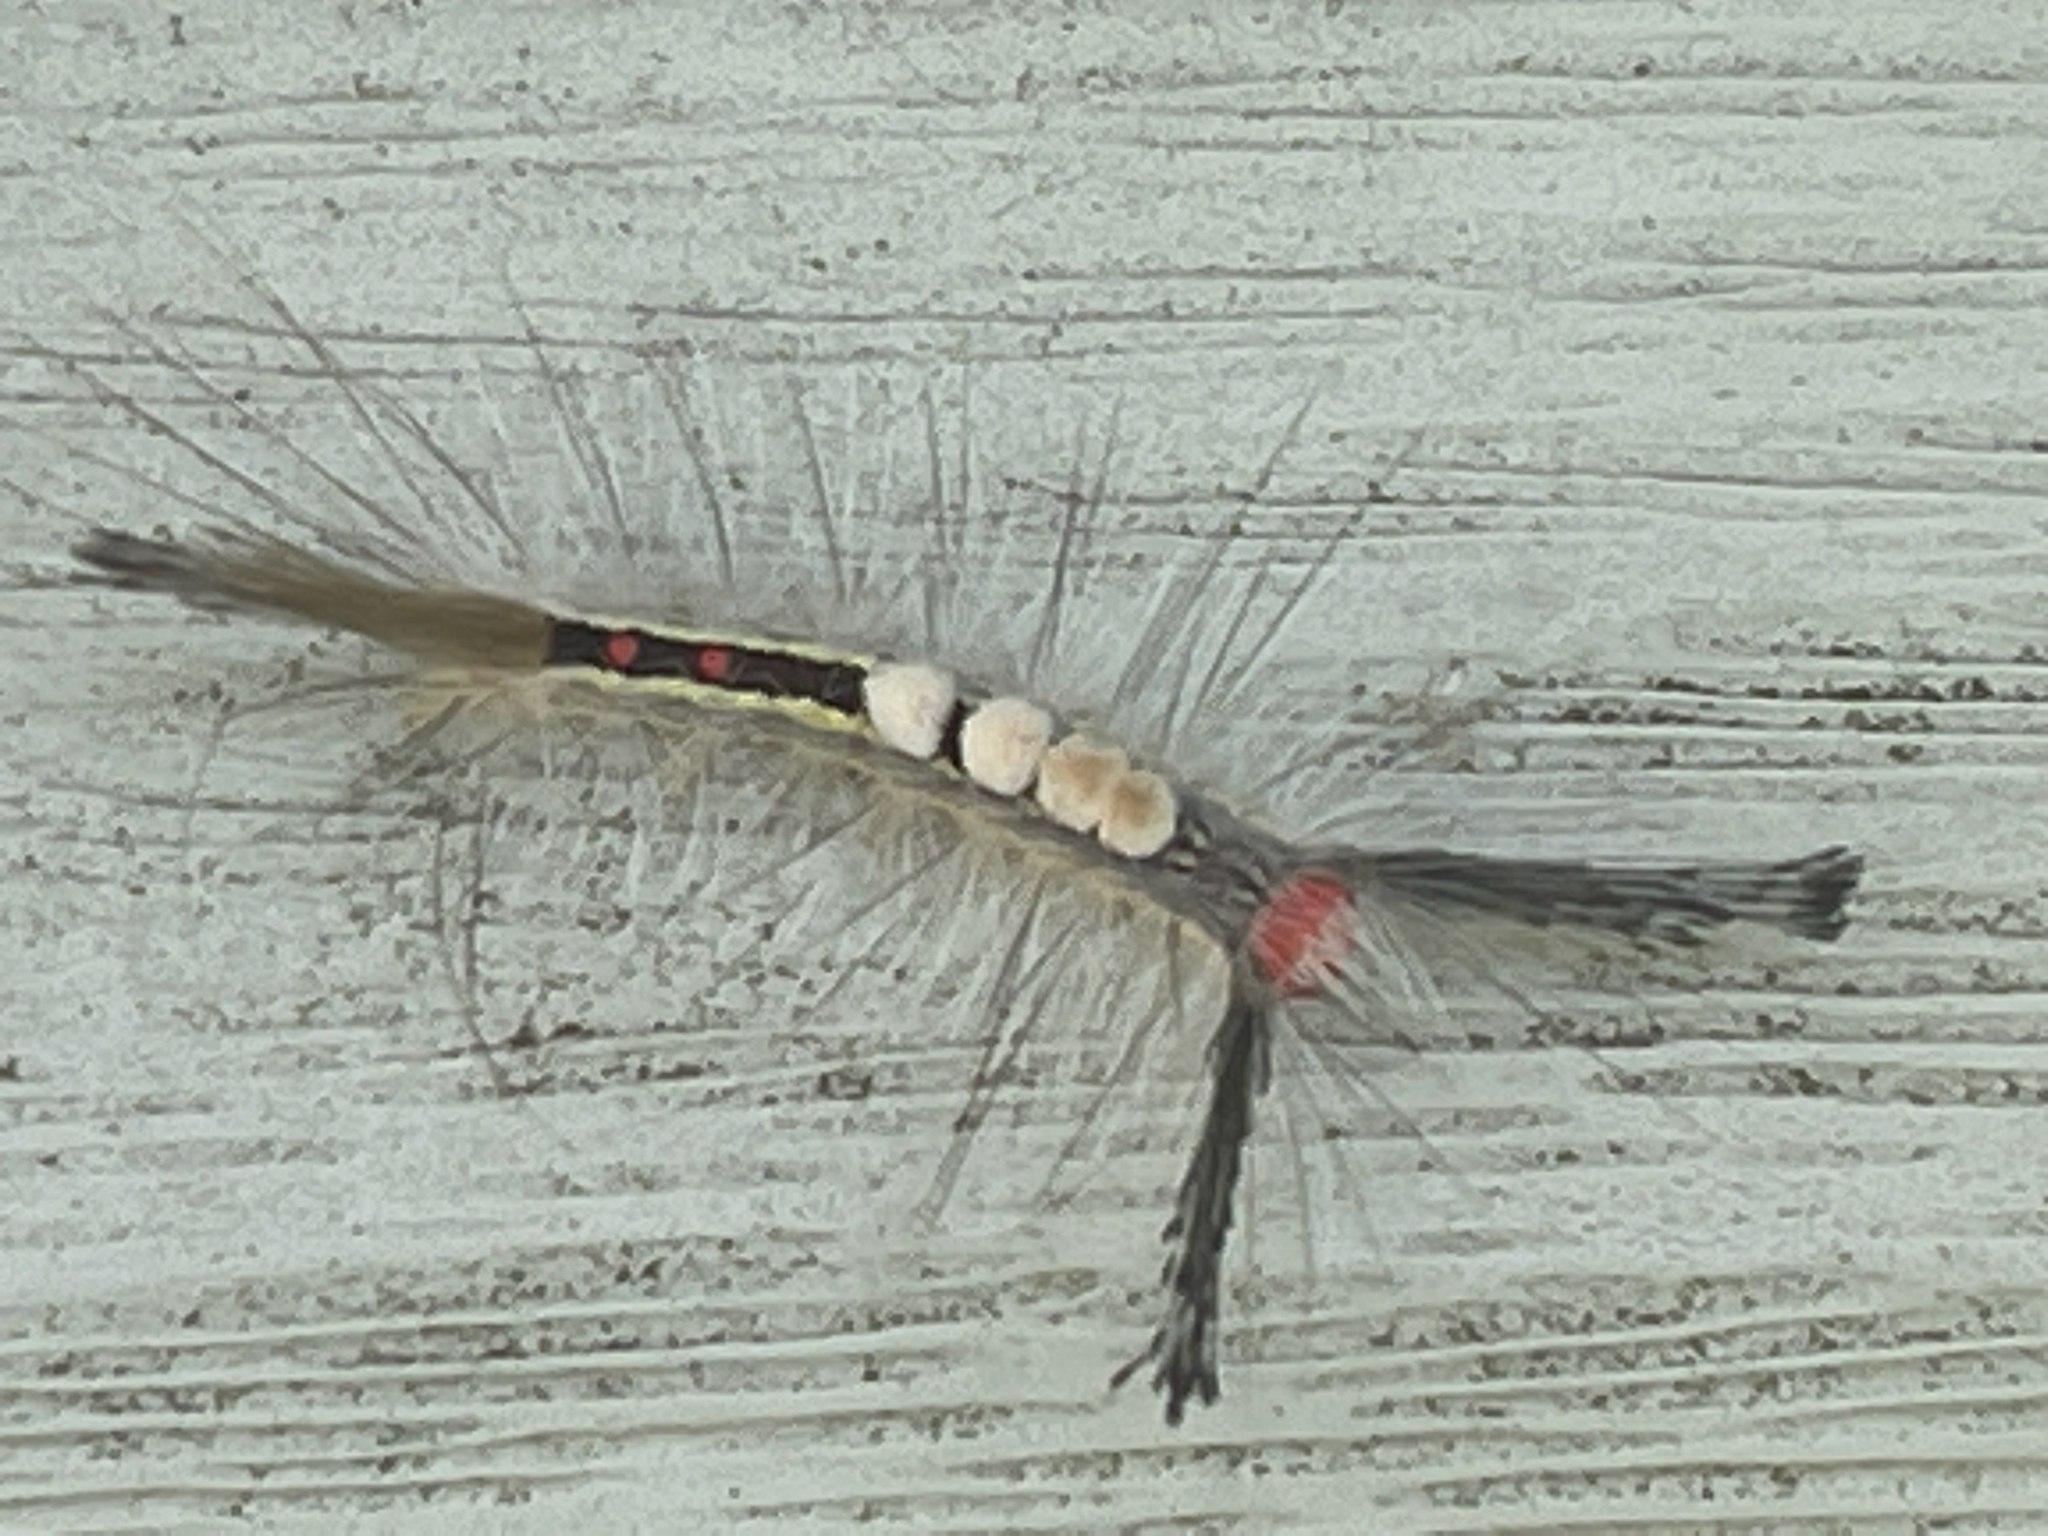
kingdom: Animalia
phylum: Arthropoda
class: Insecta
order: Lepidoptera
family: Erebidae
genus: Orgyia
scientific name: Orgyia leucostigma
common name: White-marked tussock moth
